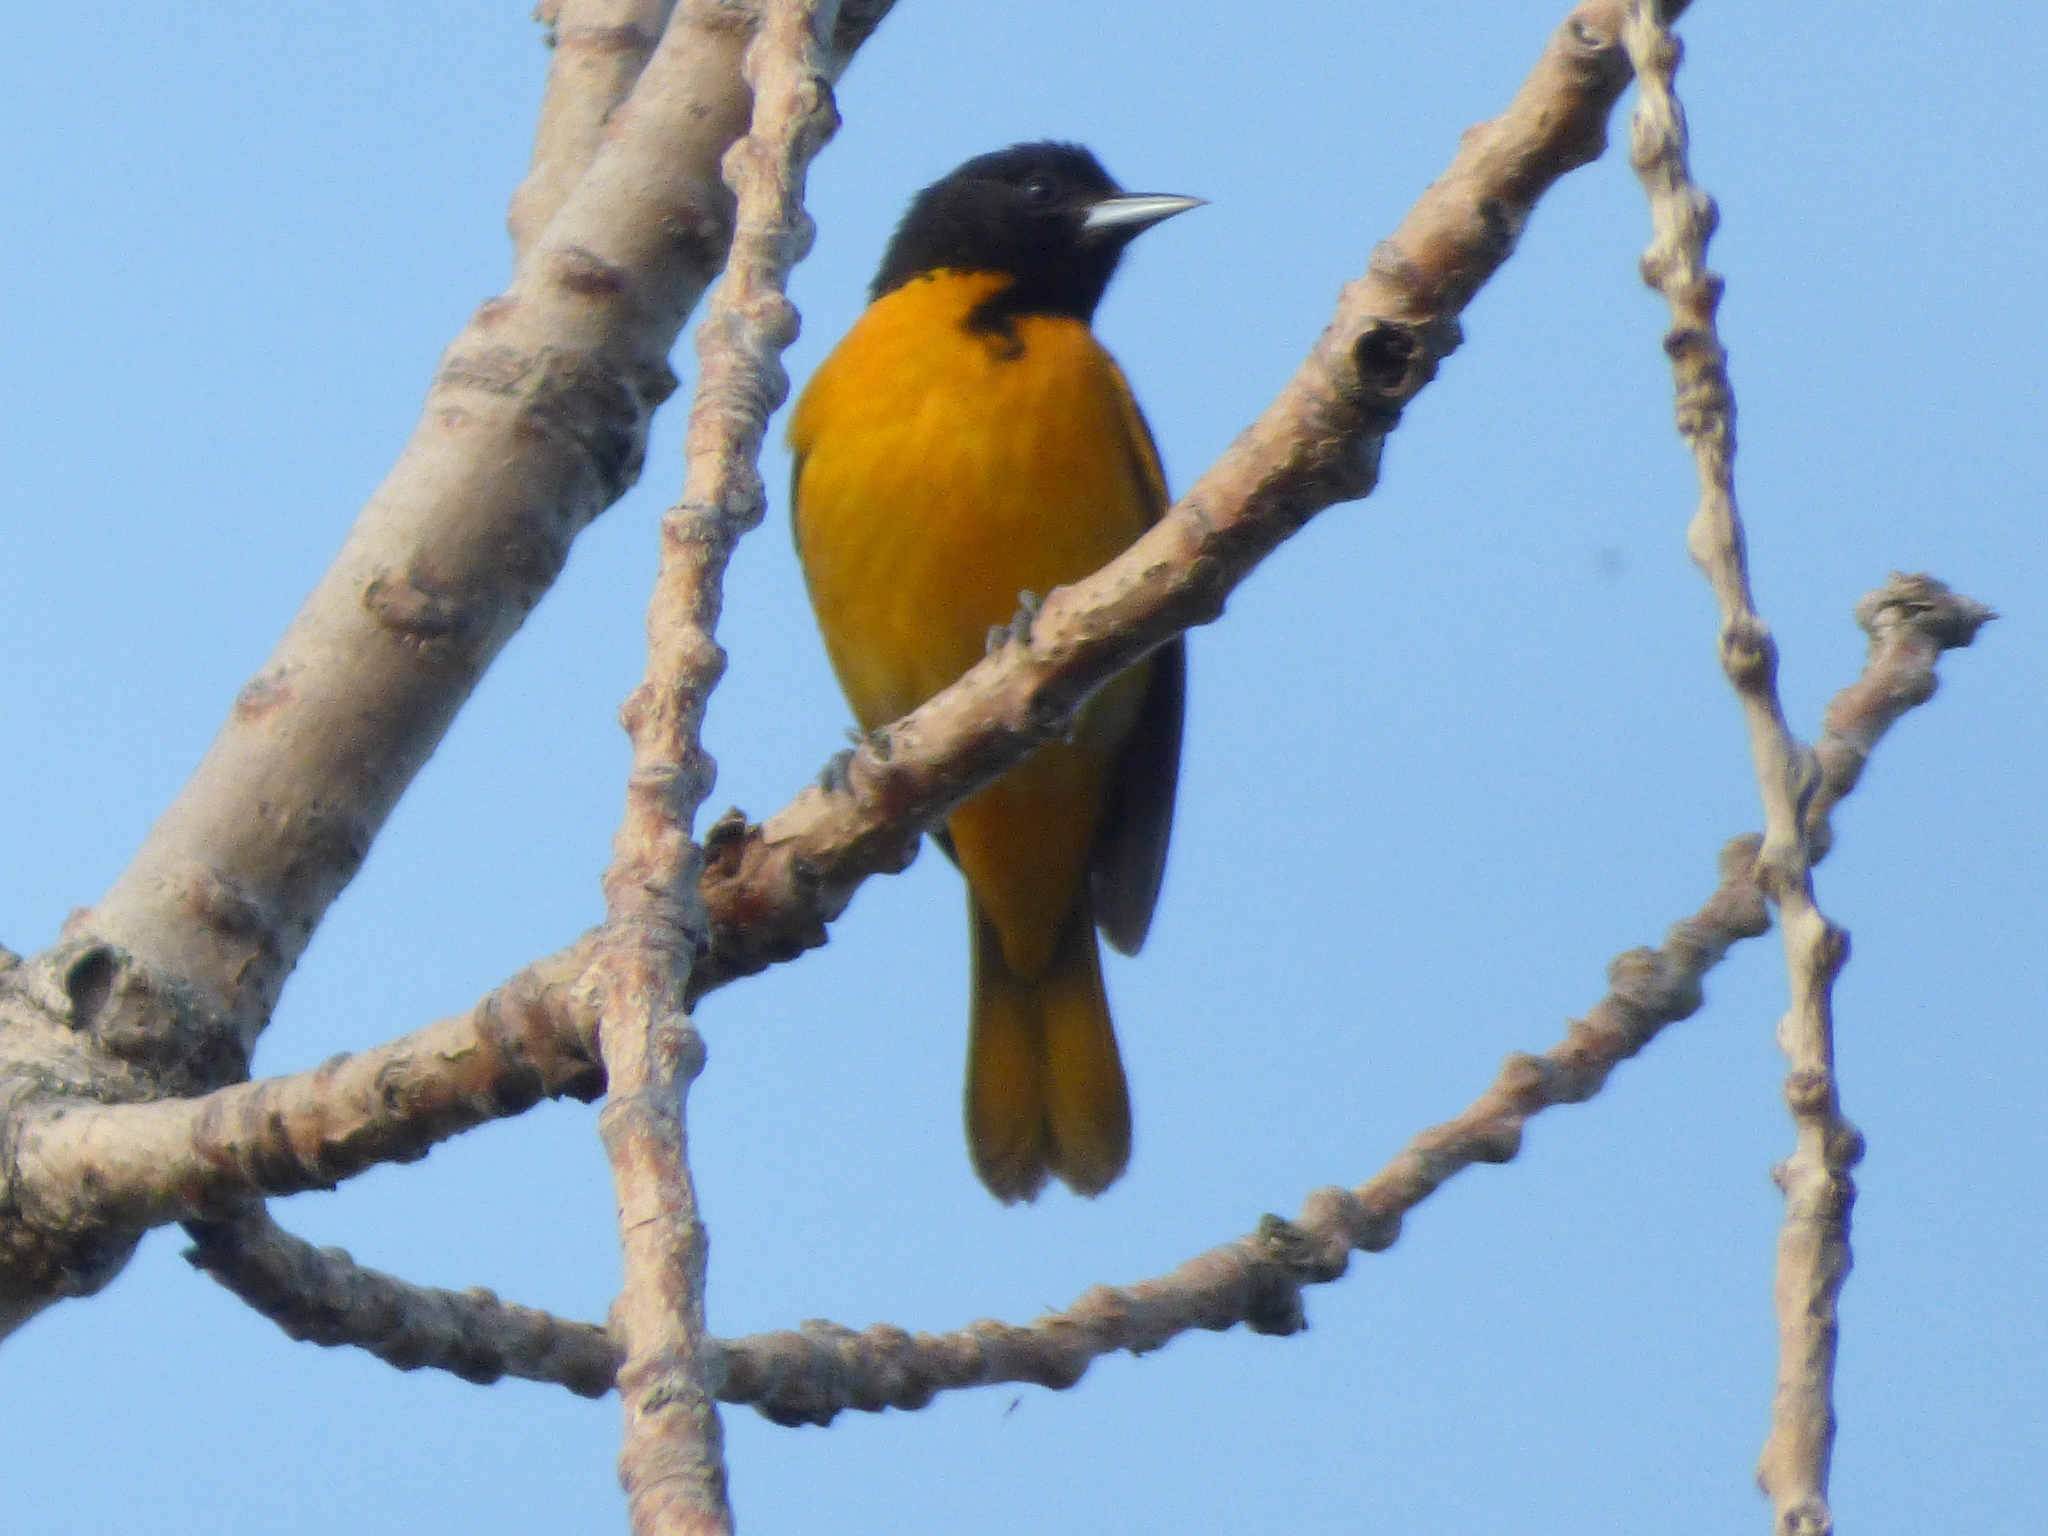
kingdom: Animalia
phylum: Chordata
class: Aves
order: Passeriformes
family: Icteridae
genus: Icterus
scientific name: Icterus galbula
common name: Baltimore oriole
